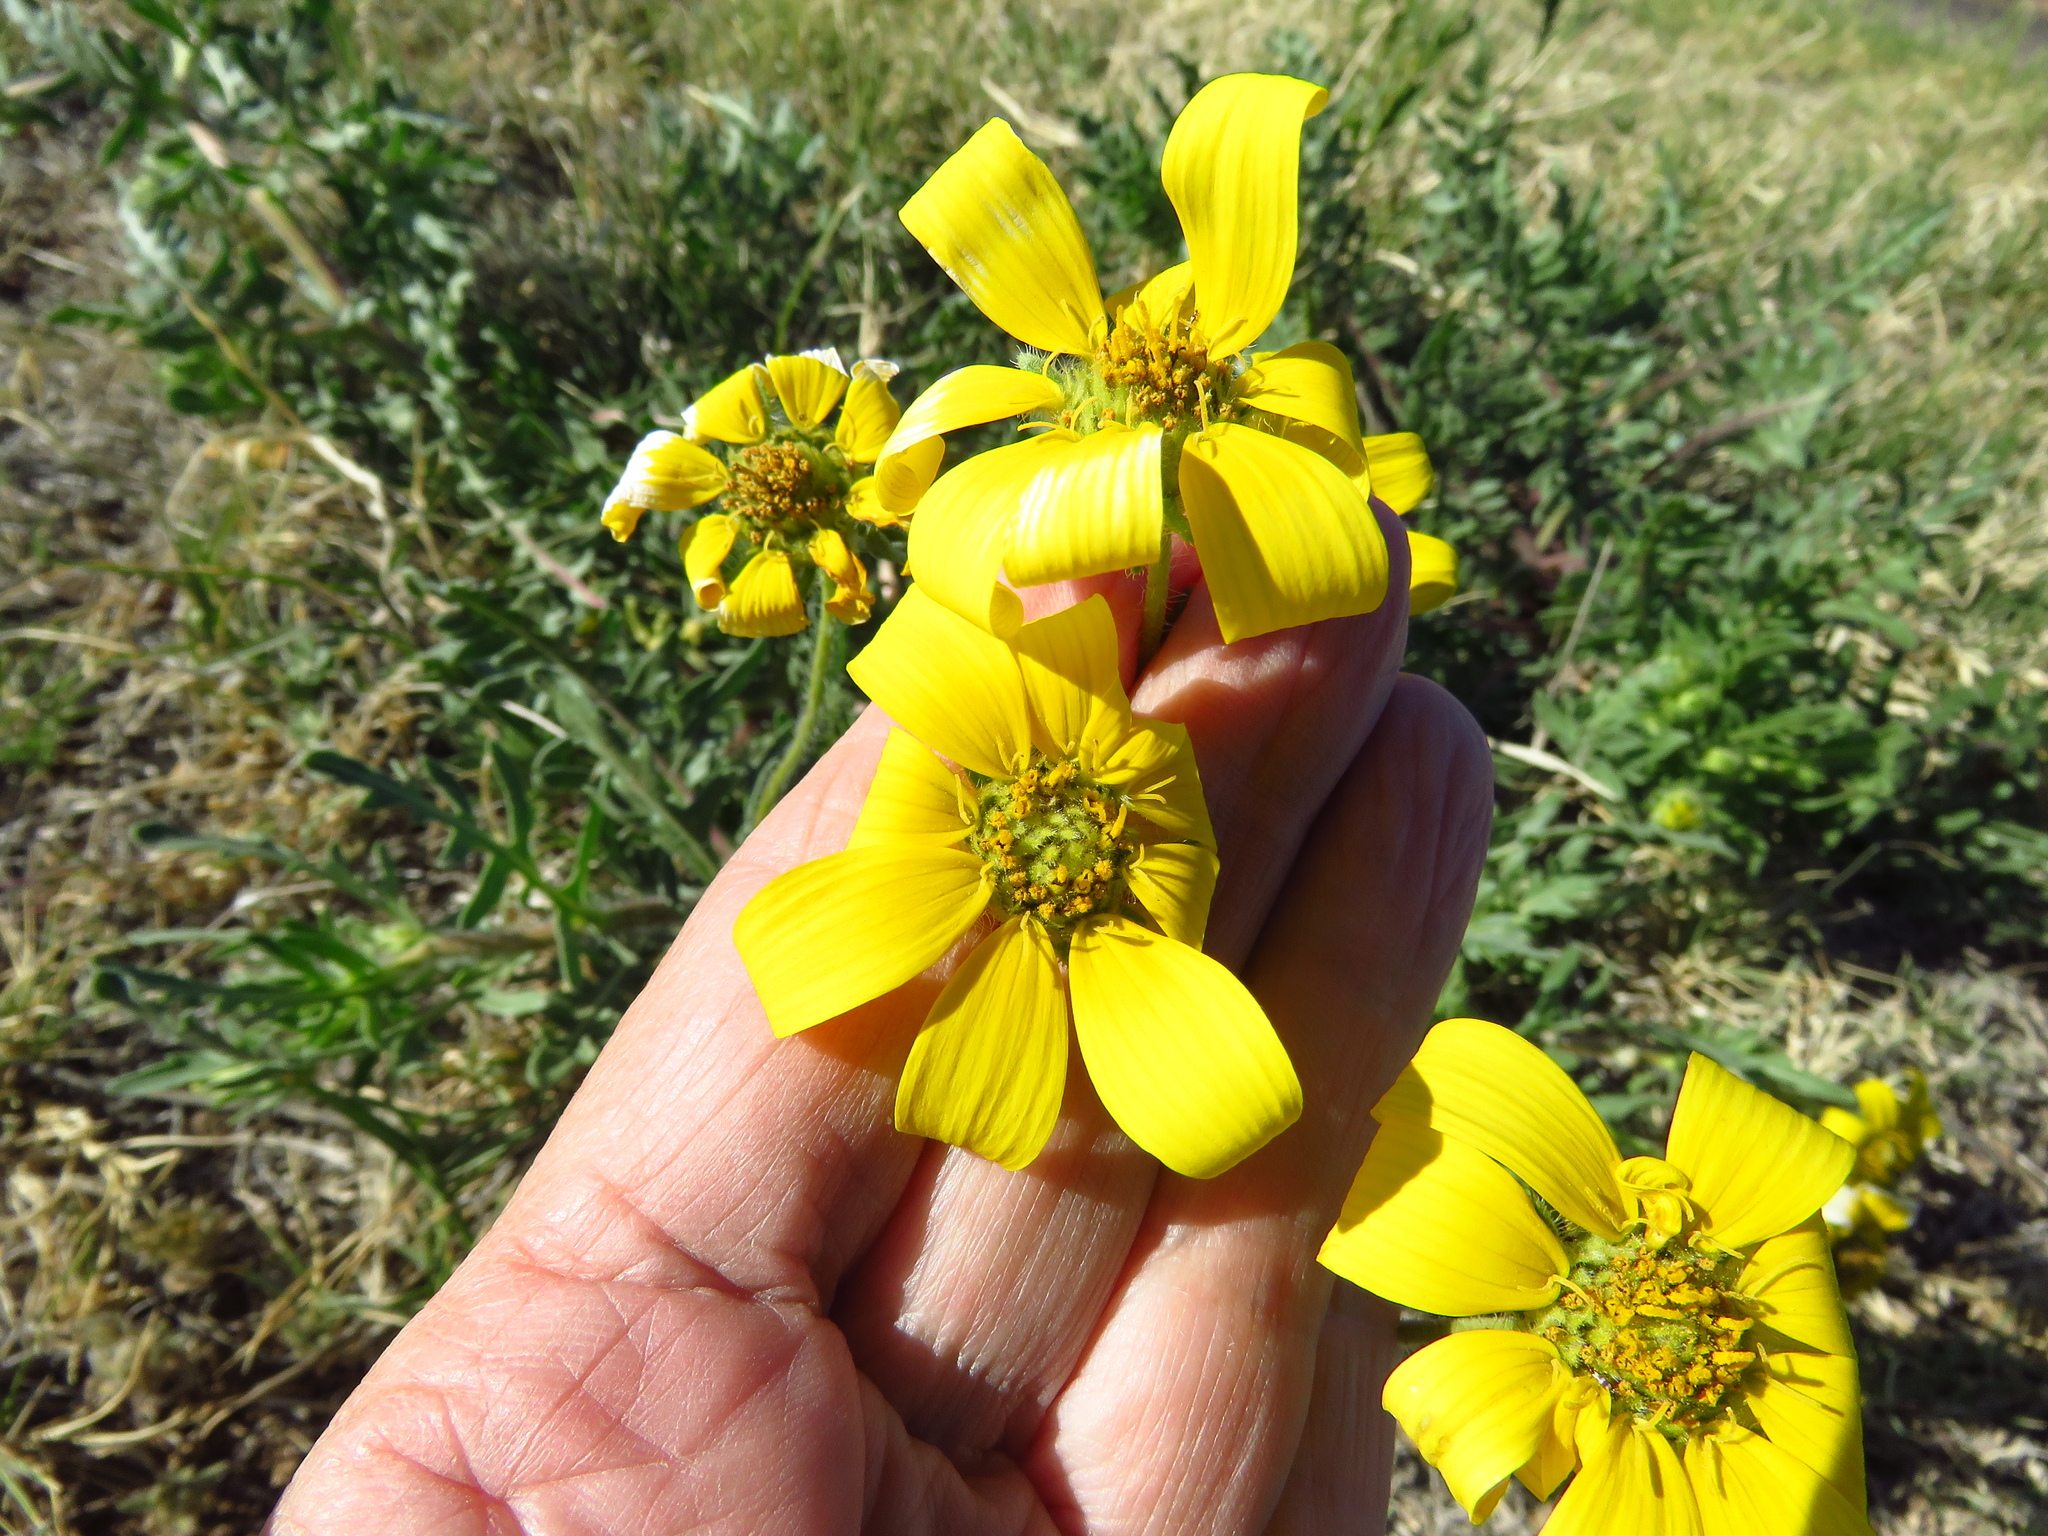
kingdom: Plantae
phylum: Tracheophyta
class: Magnoliopsida
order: Asterales
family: Asteraceae
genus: Engelmannia
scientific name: Engelmannia peristenia
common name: Engelmann's daisy
